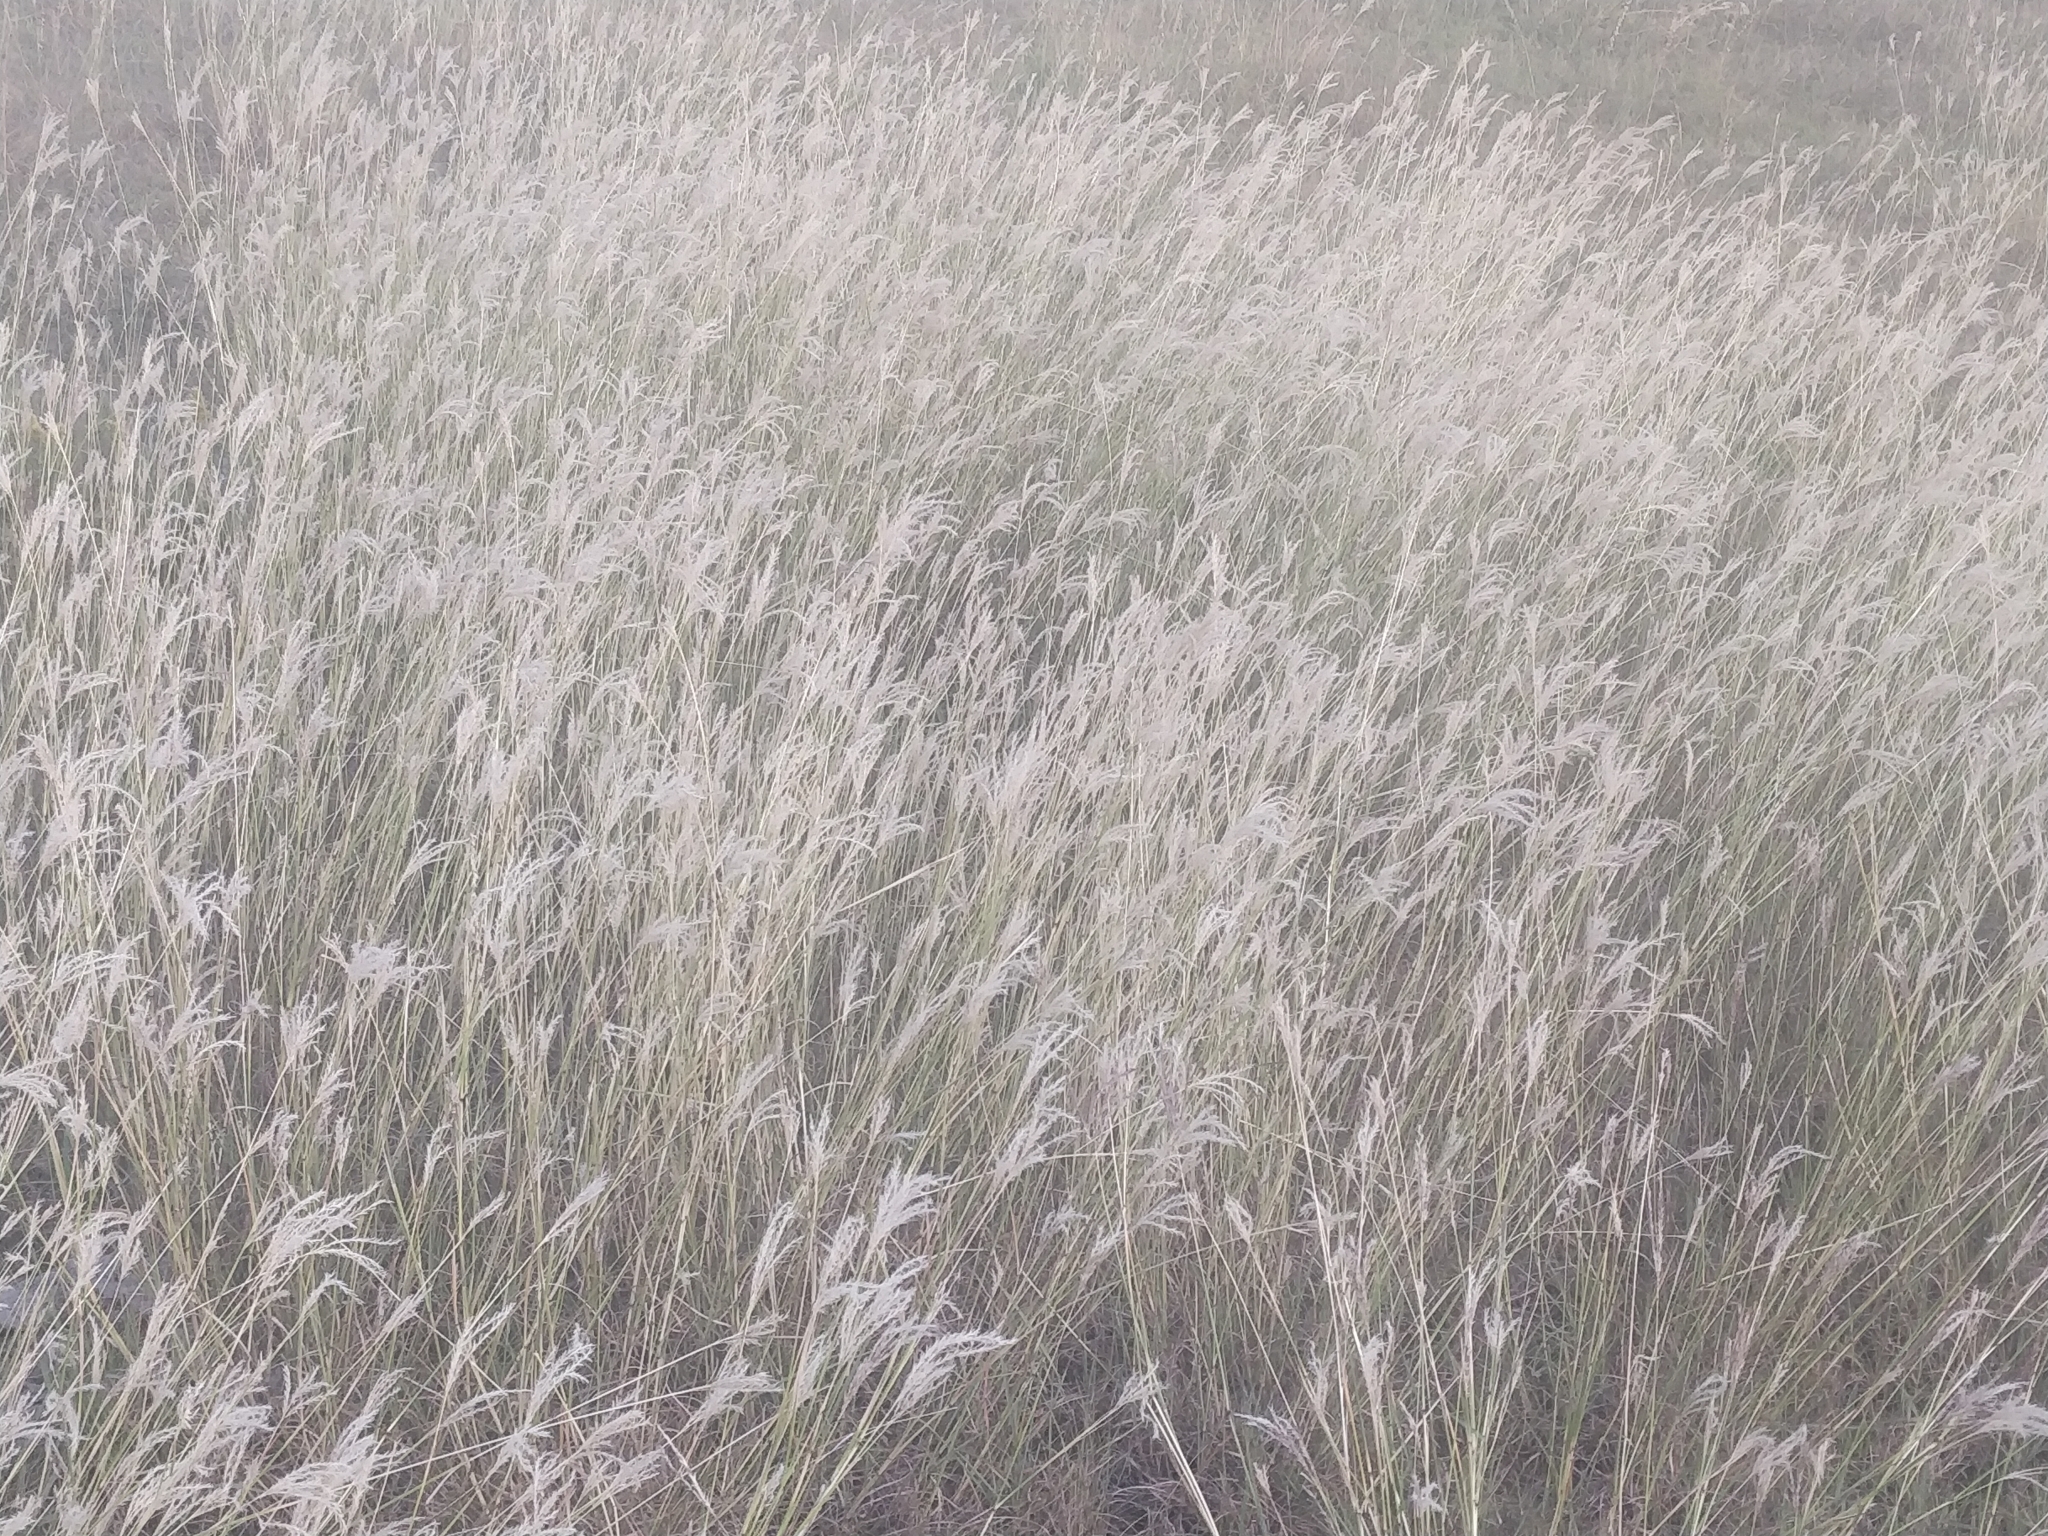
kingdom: Plantae
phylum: Tracheophyta
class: Liliopsida
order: Poales
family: Poaceae
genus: Bothriochloa
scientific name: Bothriochloa ischaemum
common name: Yellow bluestem
